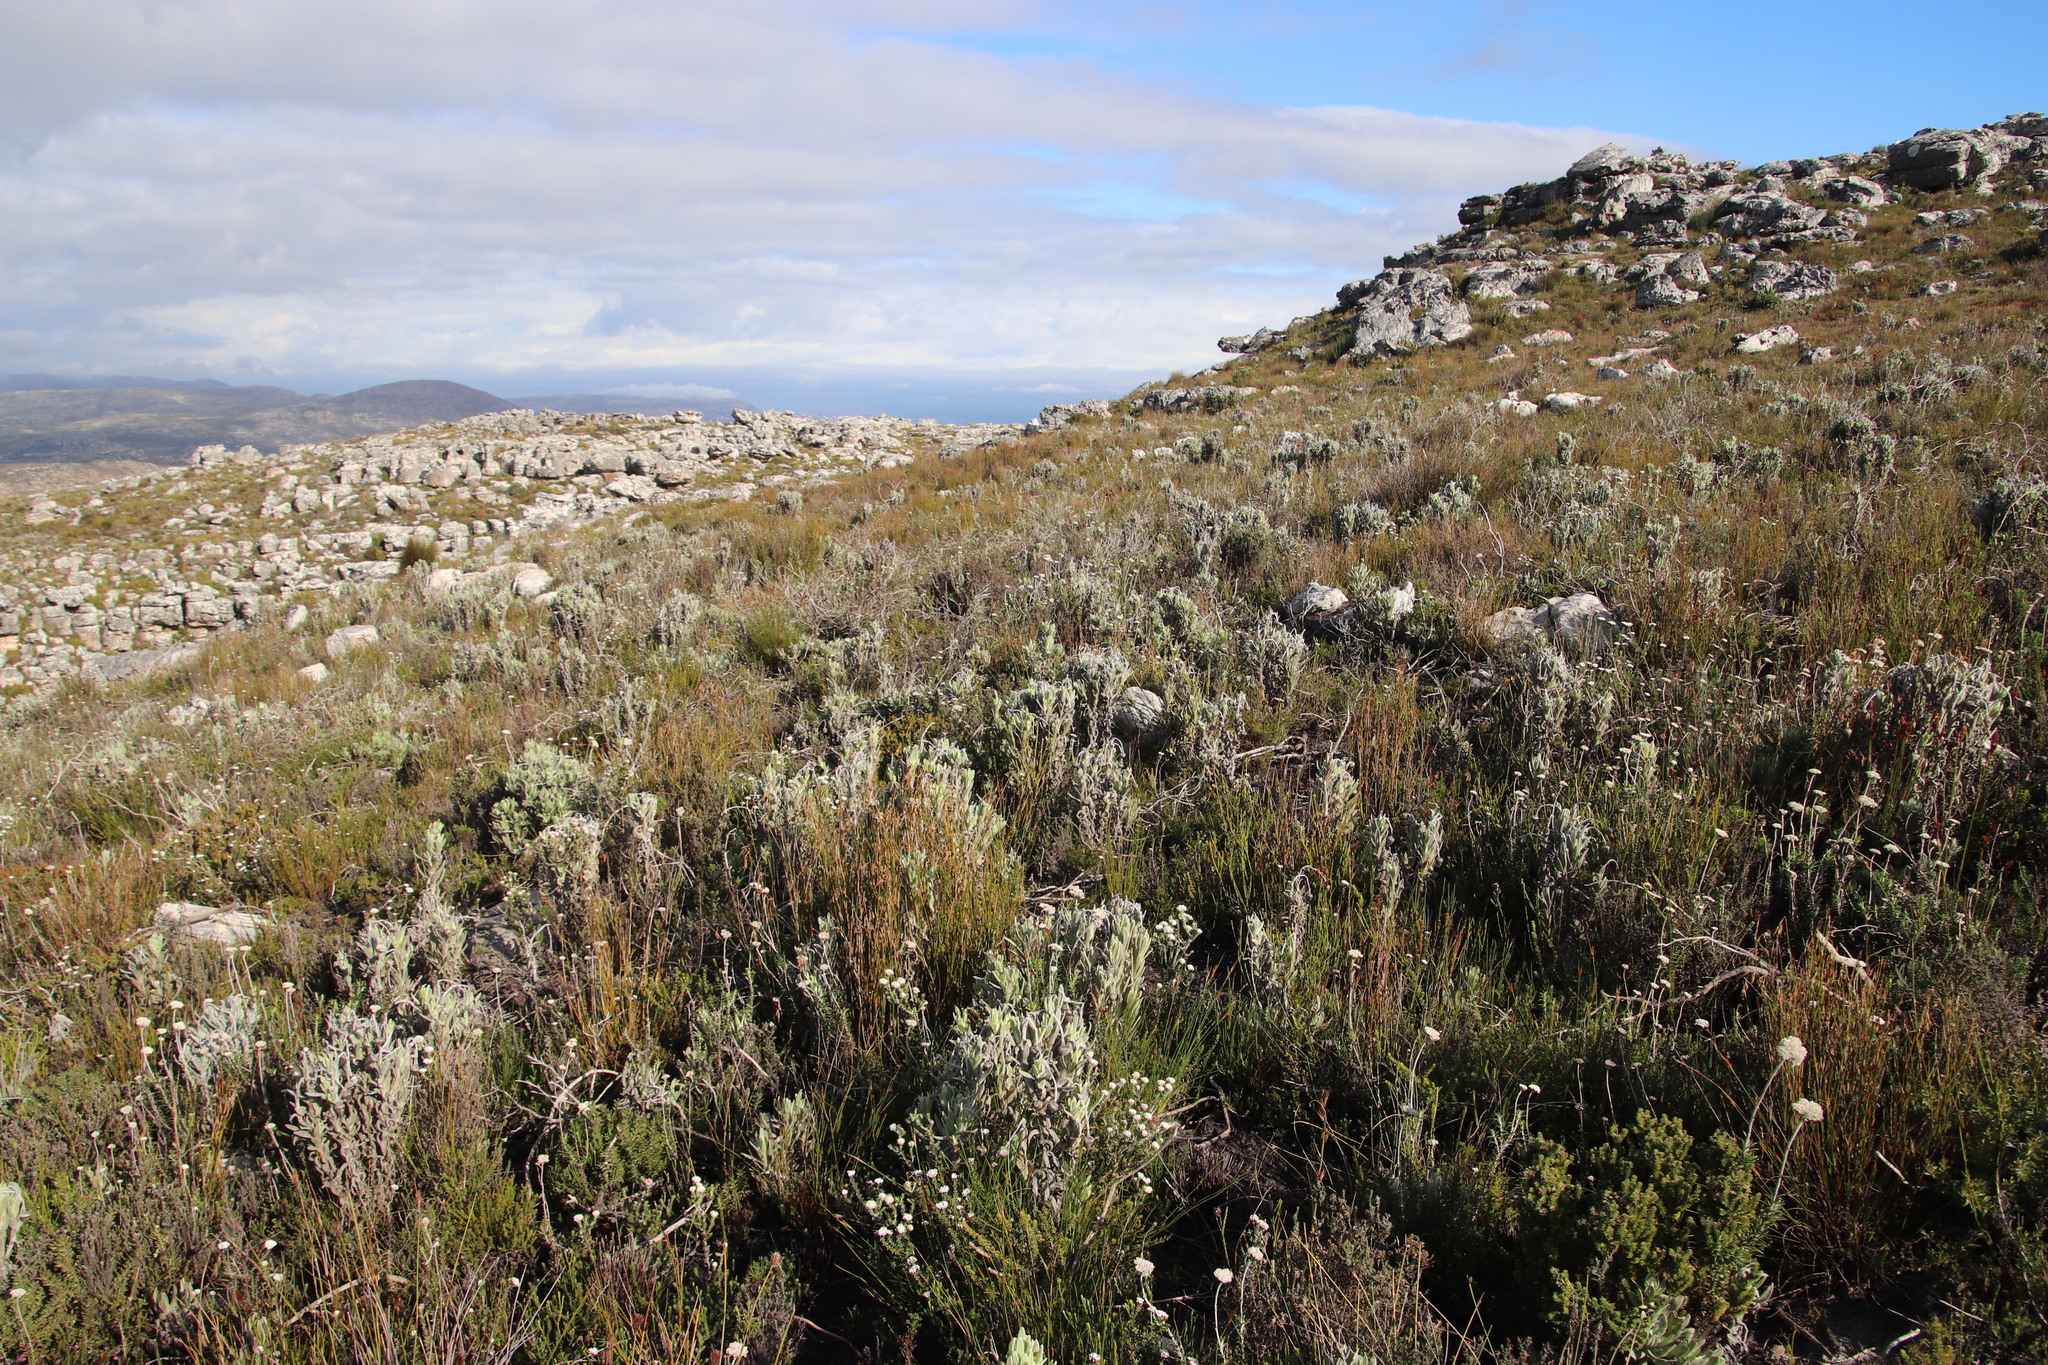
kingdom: Plantae
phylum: Tracheophyta
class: Magnoliopsida
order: Asterales
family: Asteraceae
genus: Syncarpha
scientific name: Syncarpha vestita
